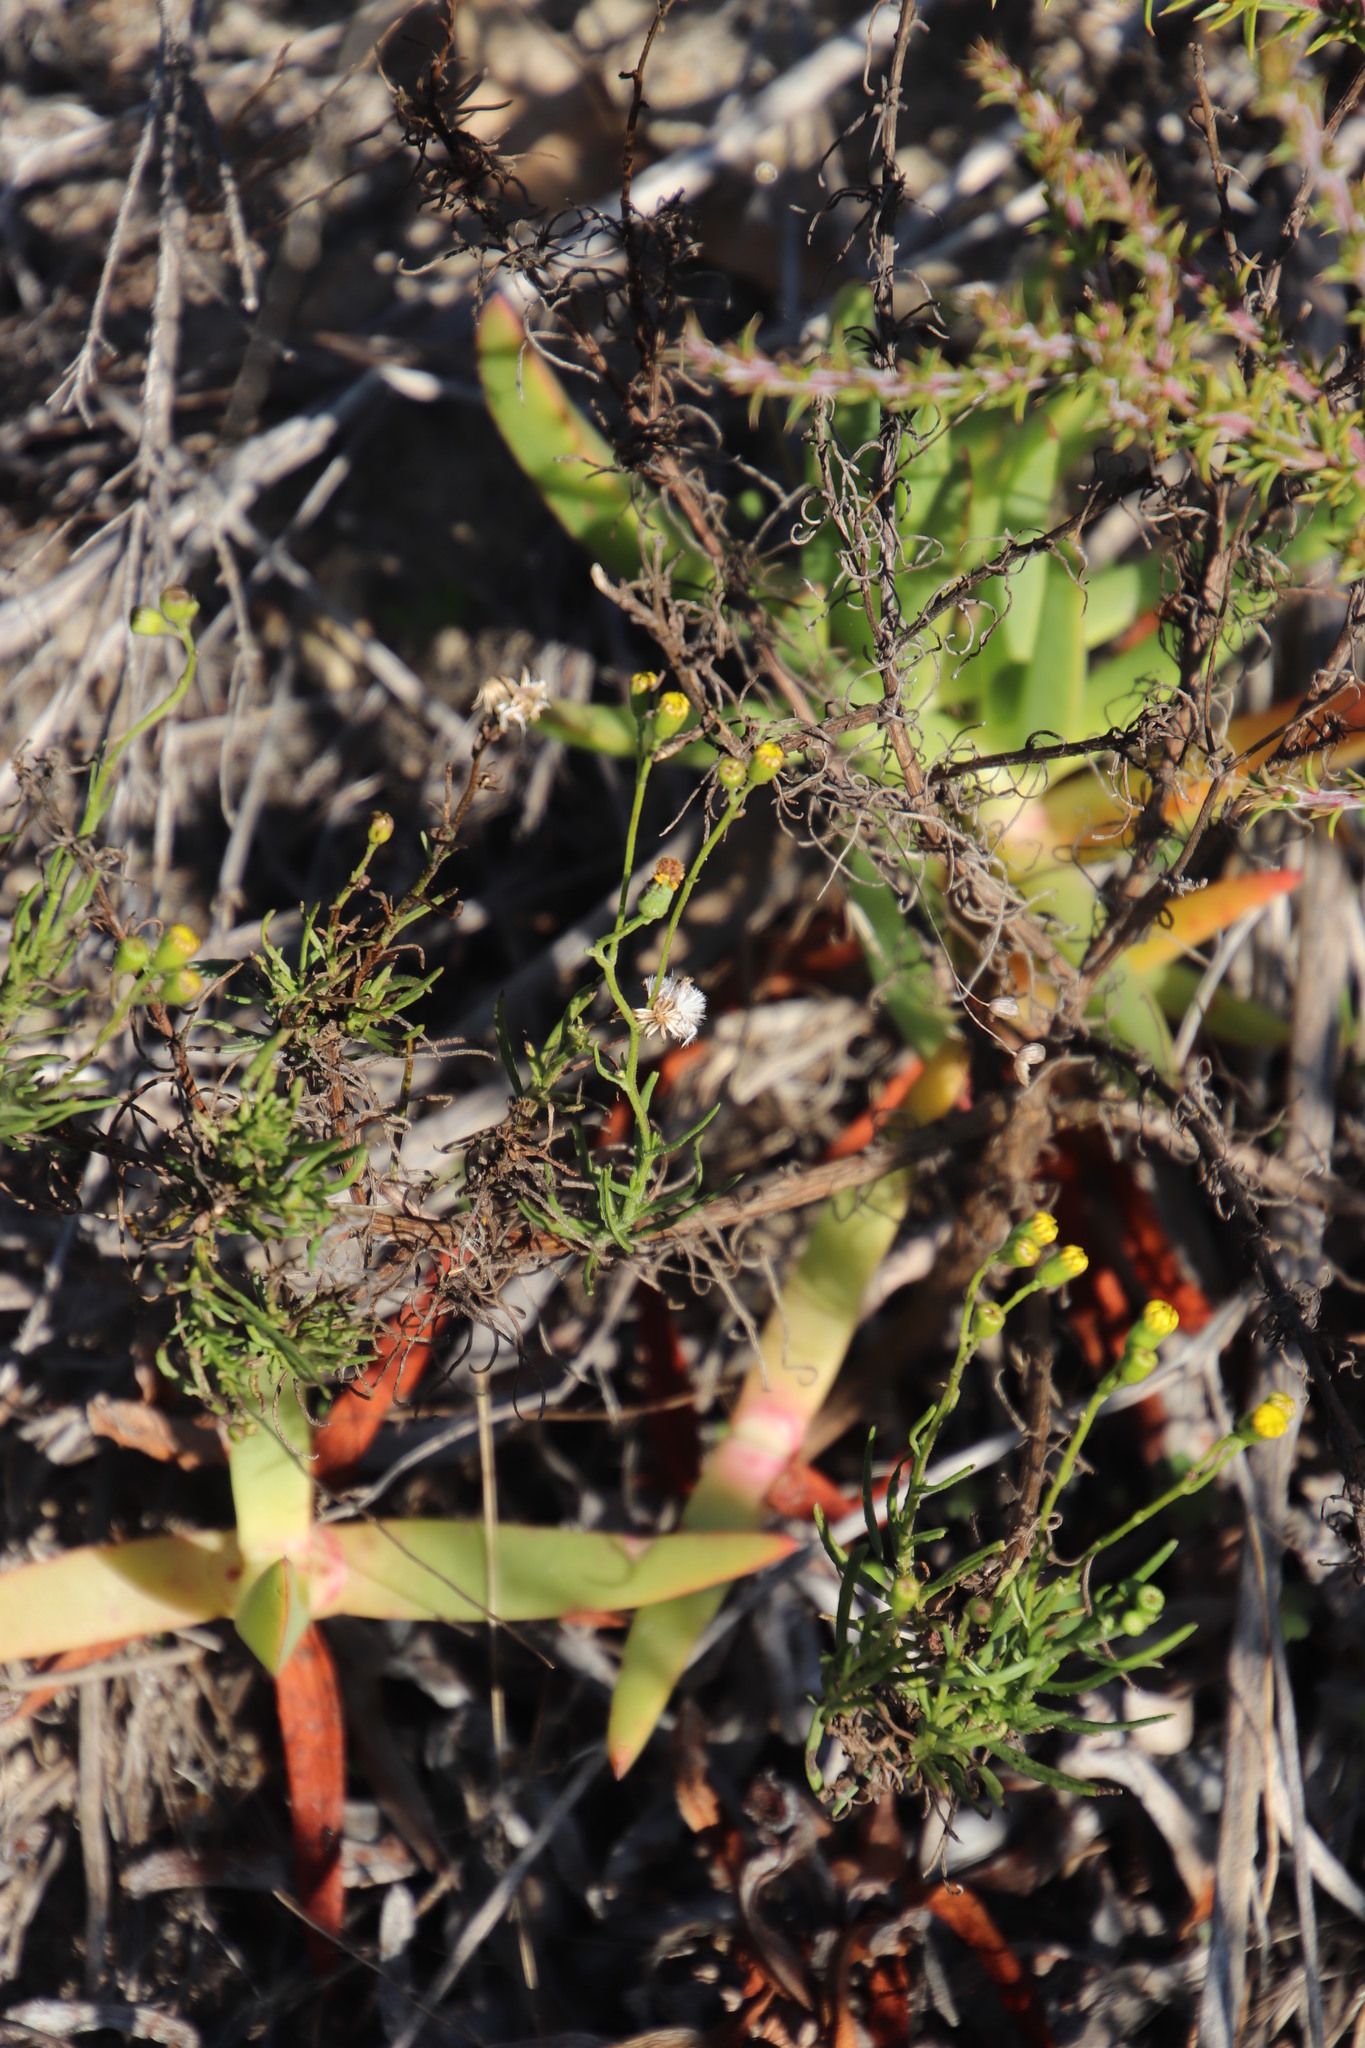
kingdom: Plantae
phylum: Tracheophyta
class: Magnoliopsida
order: Asterales
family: Asteraceae
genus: Senecio
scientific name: Senecio burchellii
